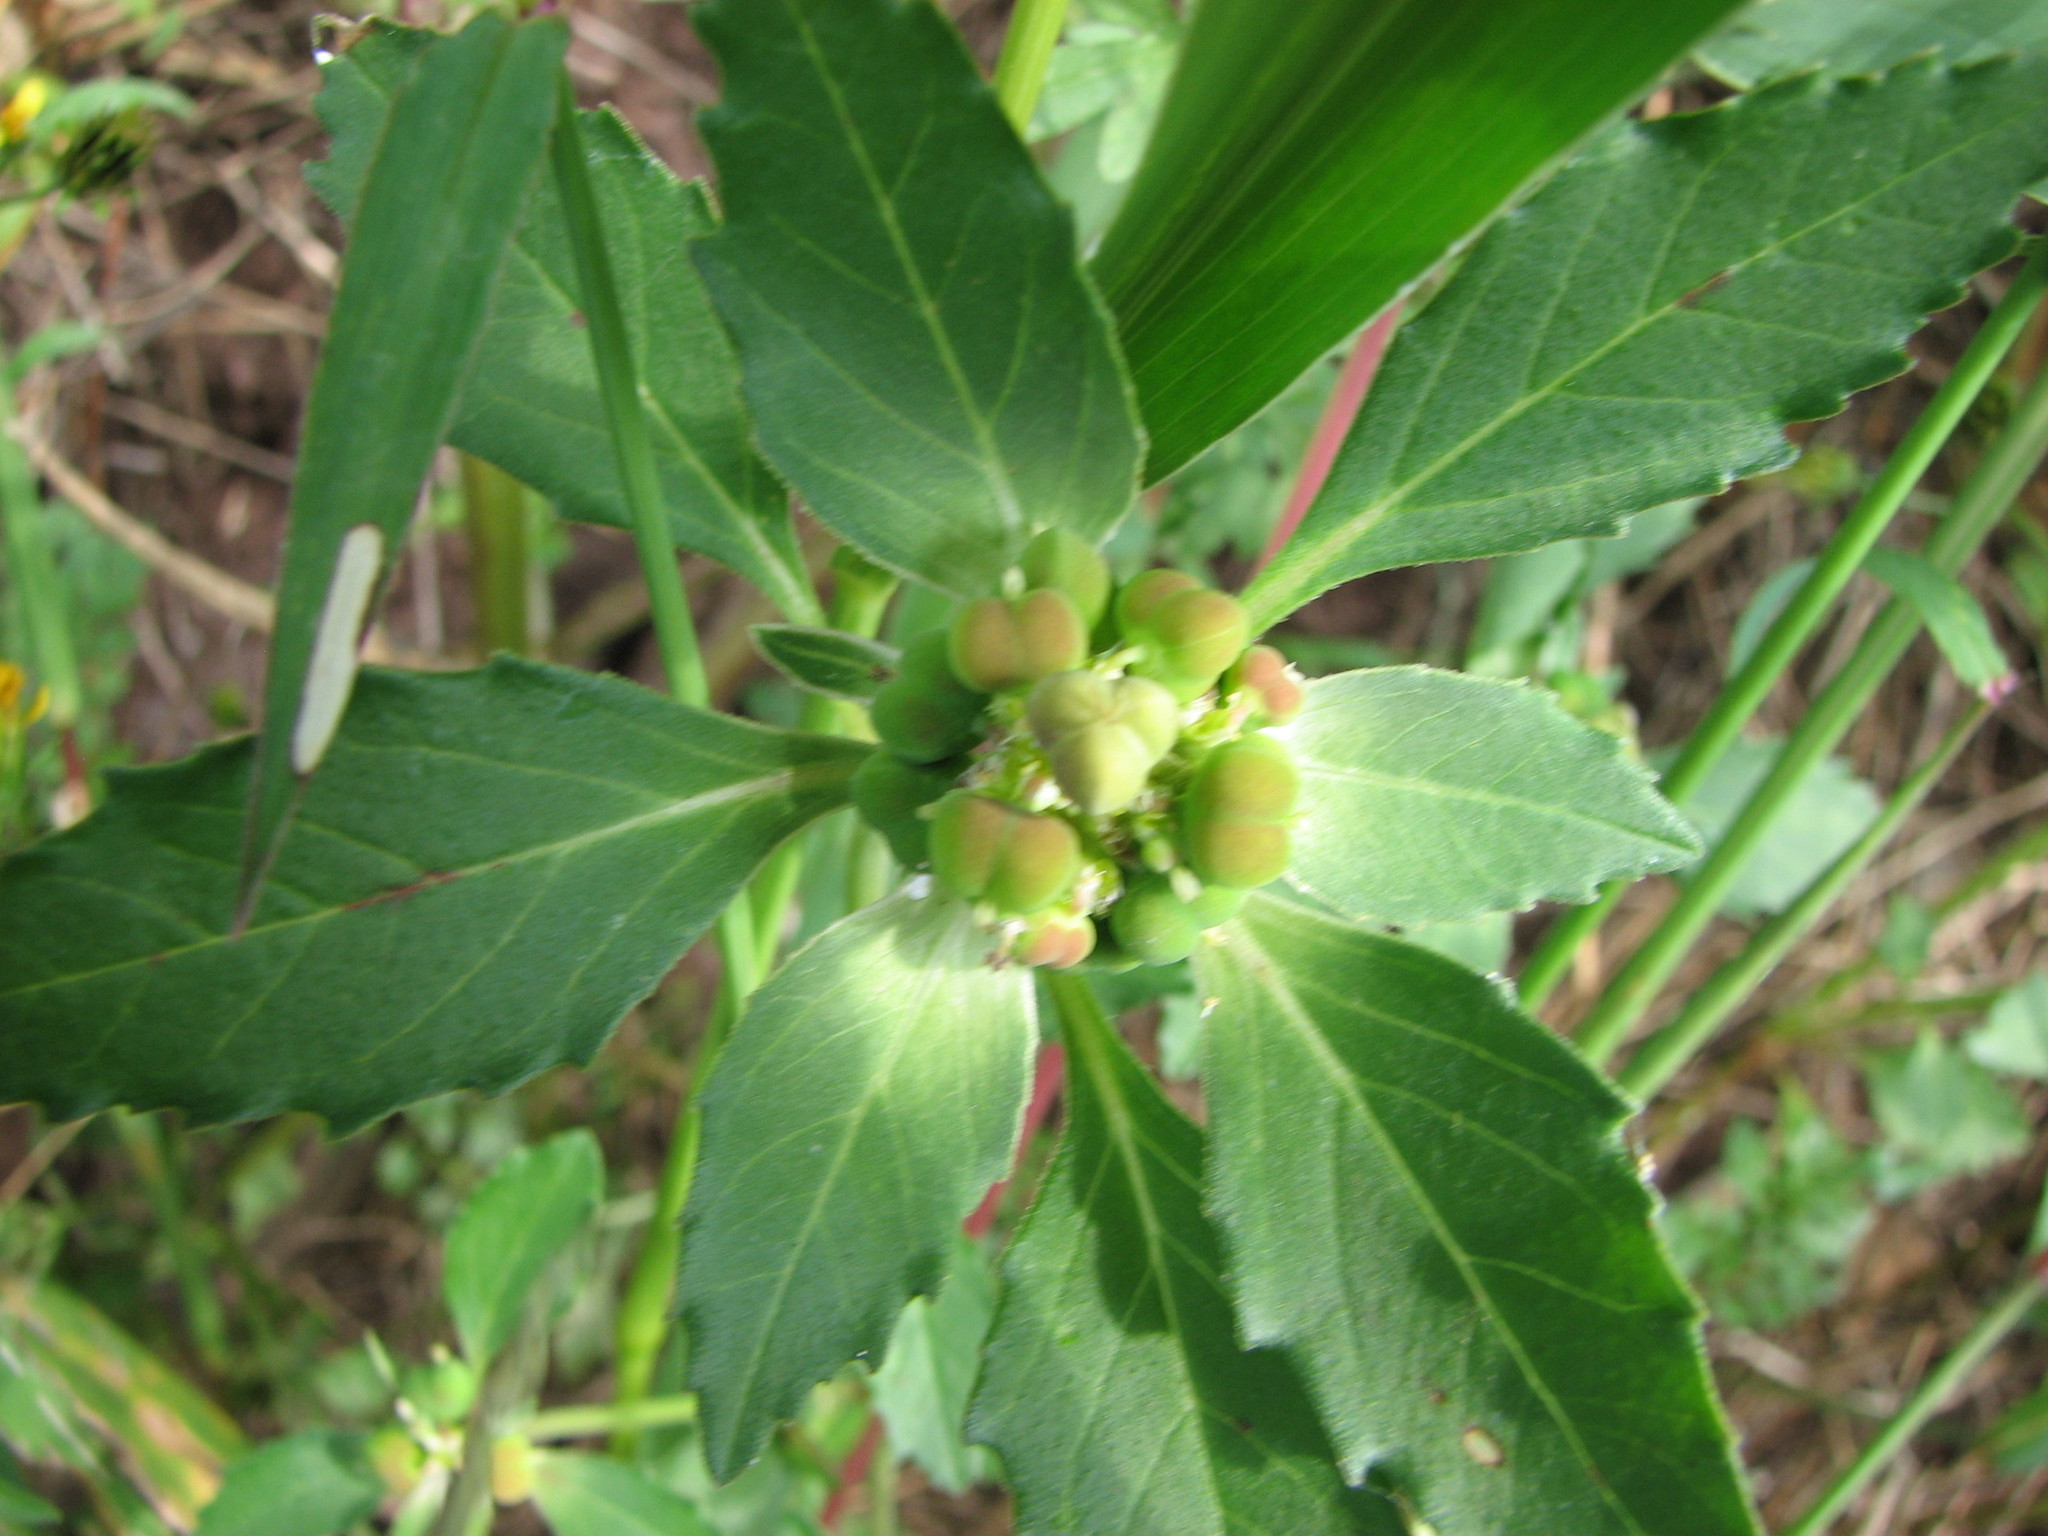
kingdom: Plantae
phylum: Tracheophyta
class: Magnoliopsida
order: Malpighiales
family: Euphorbiaceae
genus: Euphorbia
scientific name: Euphorbia davidii
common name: David's spurge
